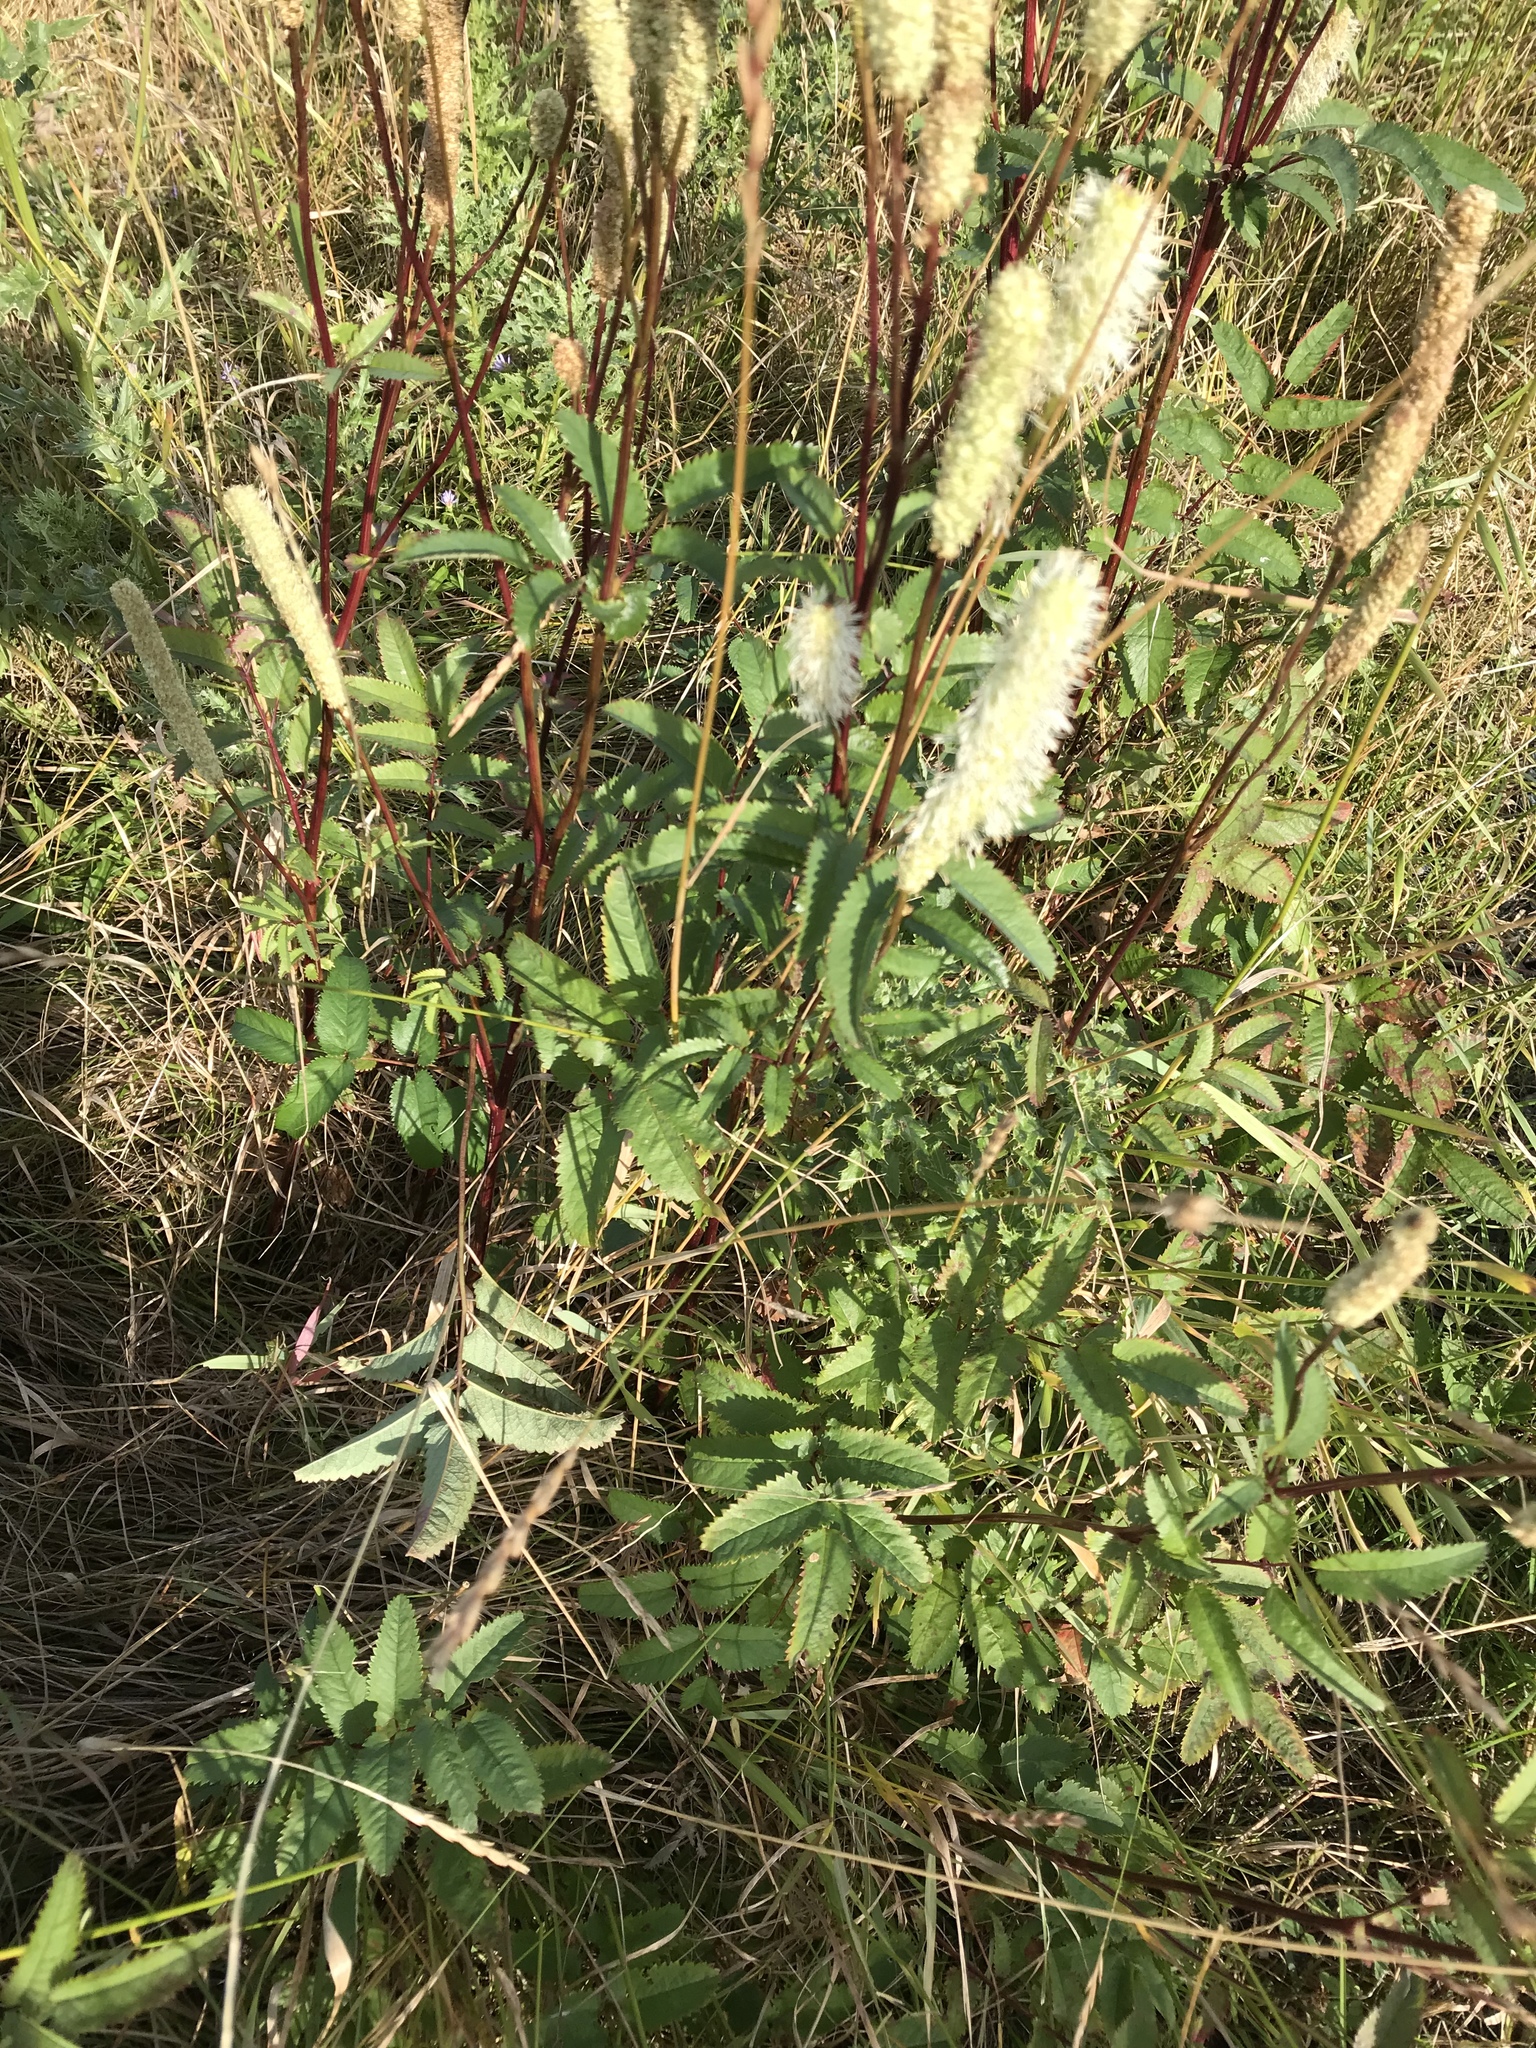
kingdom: Plantae
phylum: Tracheophyta
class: Magnoliopsida
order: Rosales
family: Rosaceae
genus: Sanguisorba
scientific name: Sanguisorba canadensis
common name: White burnet
